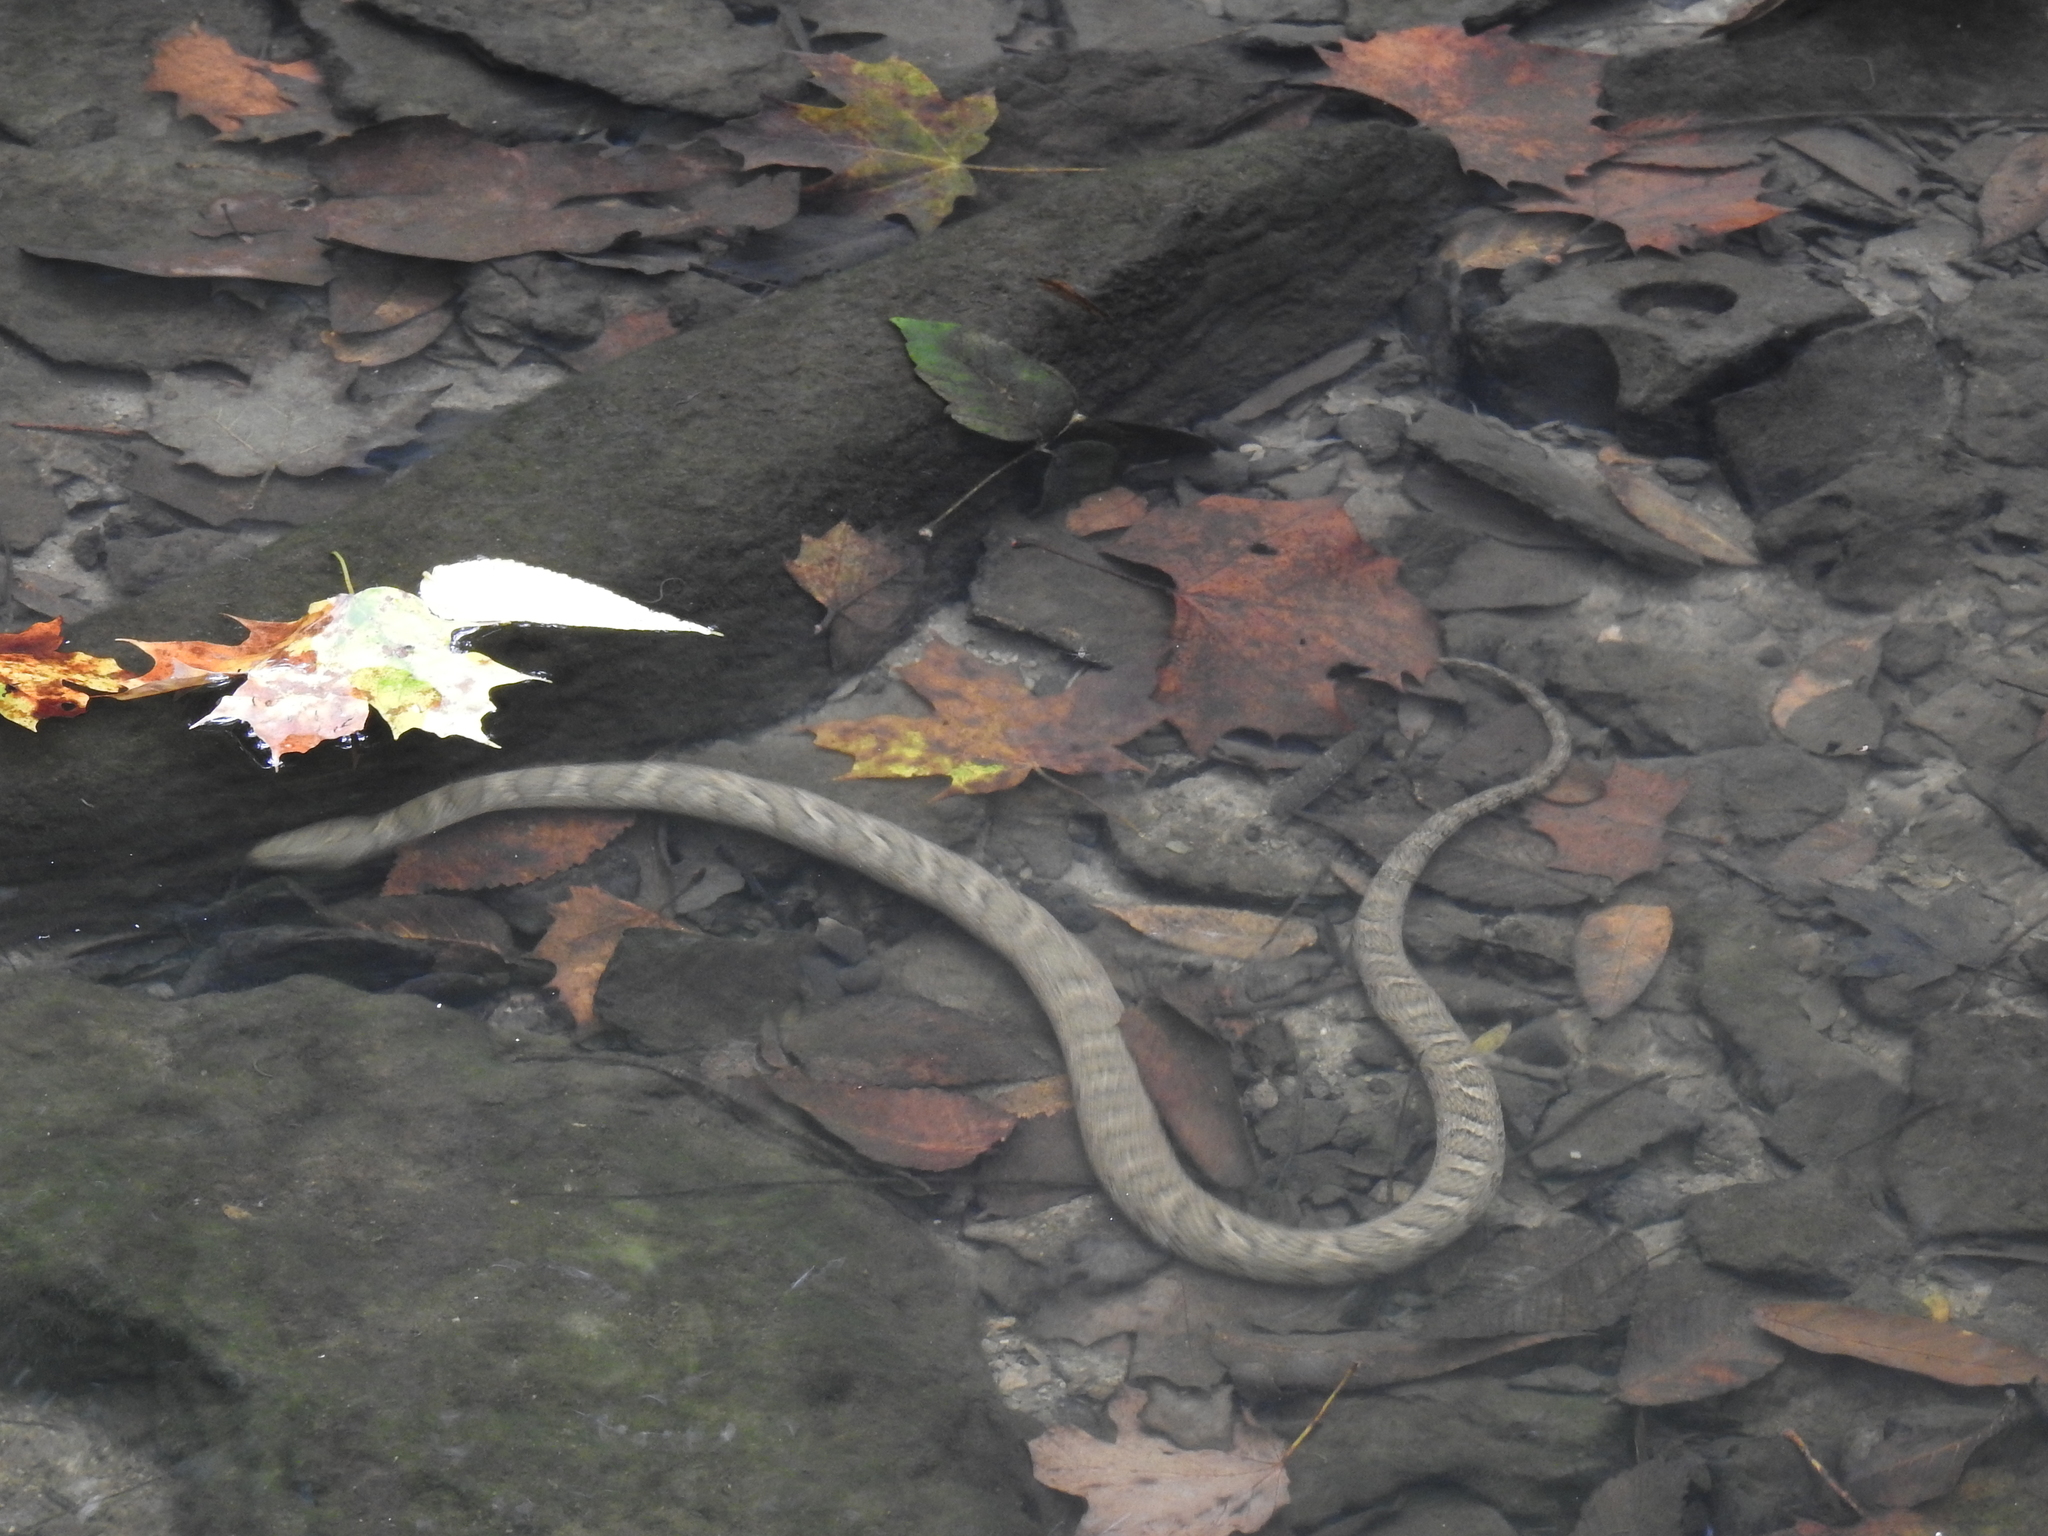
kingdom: Animalia
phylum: Chordata
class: Squamata
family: Colubridae
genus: Nerodia
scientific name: Nerodia sipedon
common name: Northern water snake
